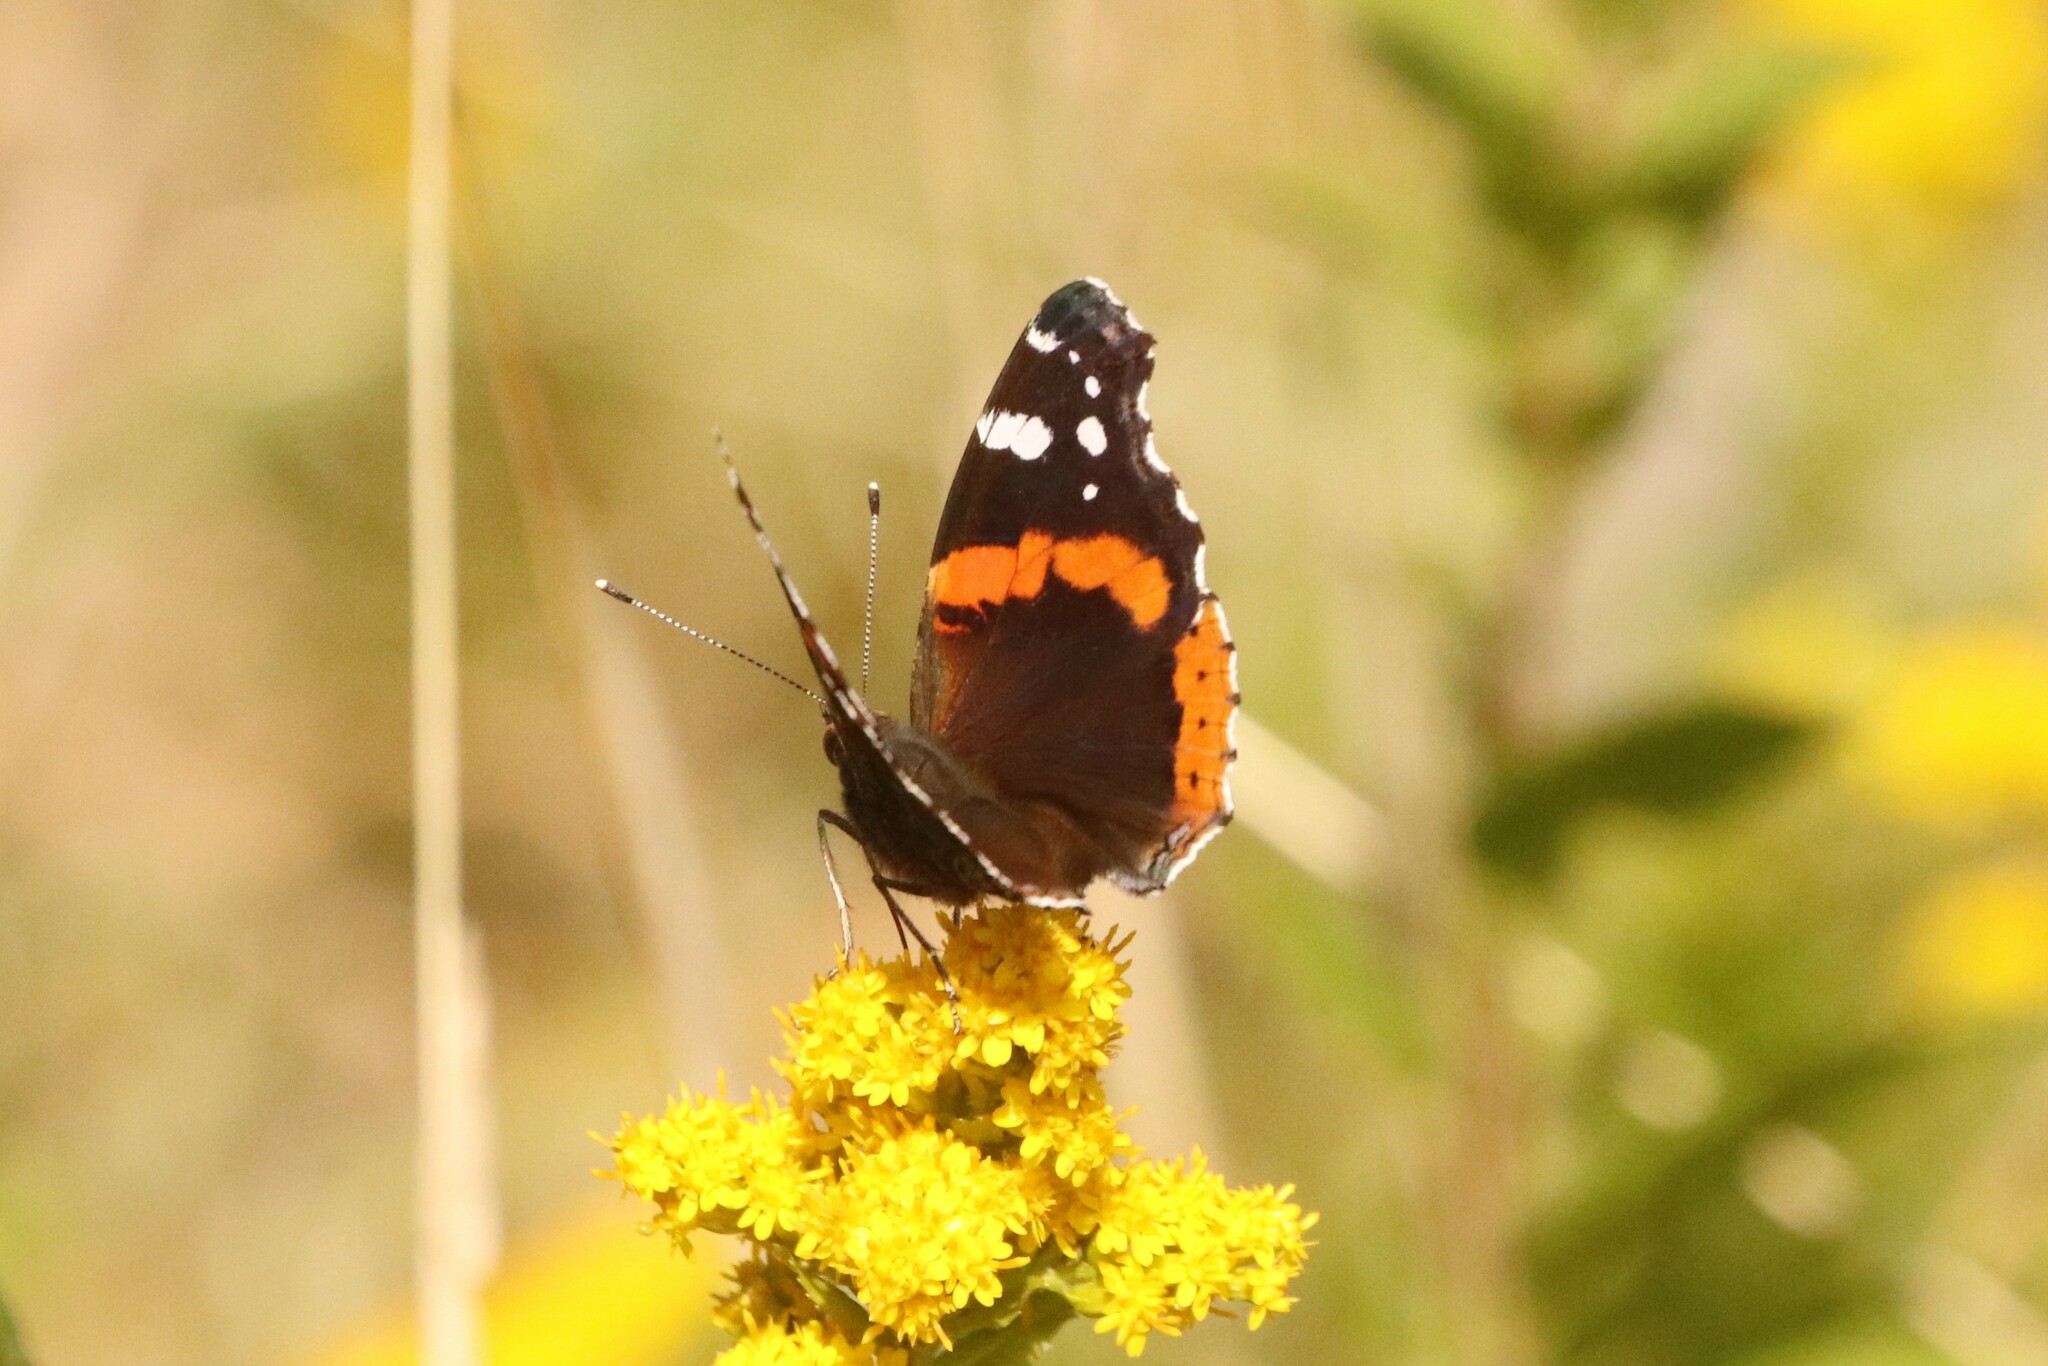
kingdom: Animalia
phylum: Arthropoda
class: Insecta
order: Lepidoptera
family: Nymphalidae
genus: Vanessa
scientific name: Vanessa atalanta
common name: Red admiral
